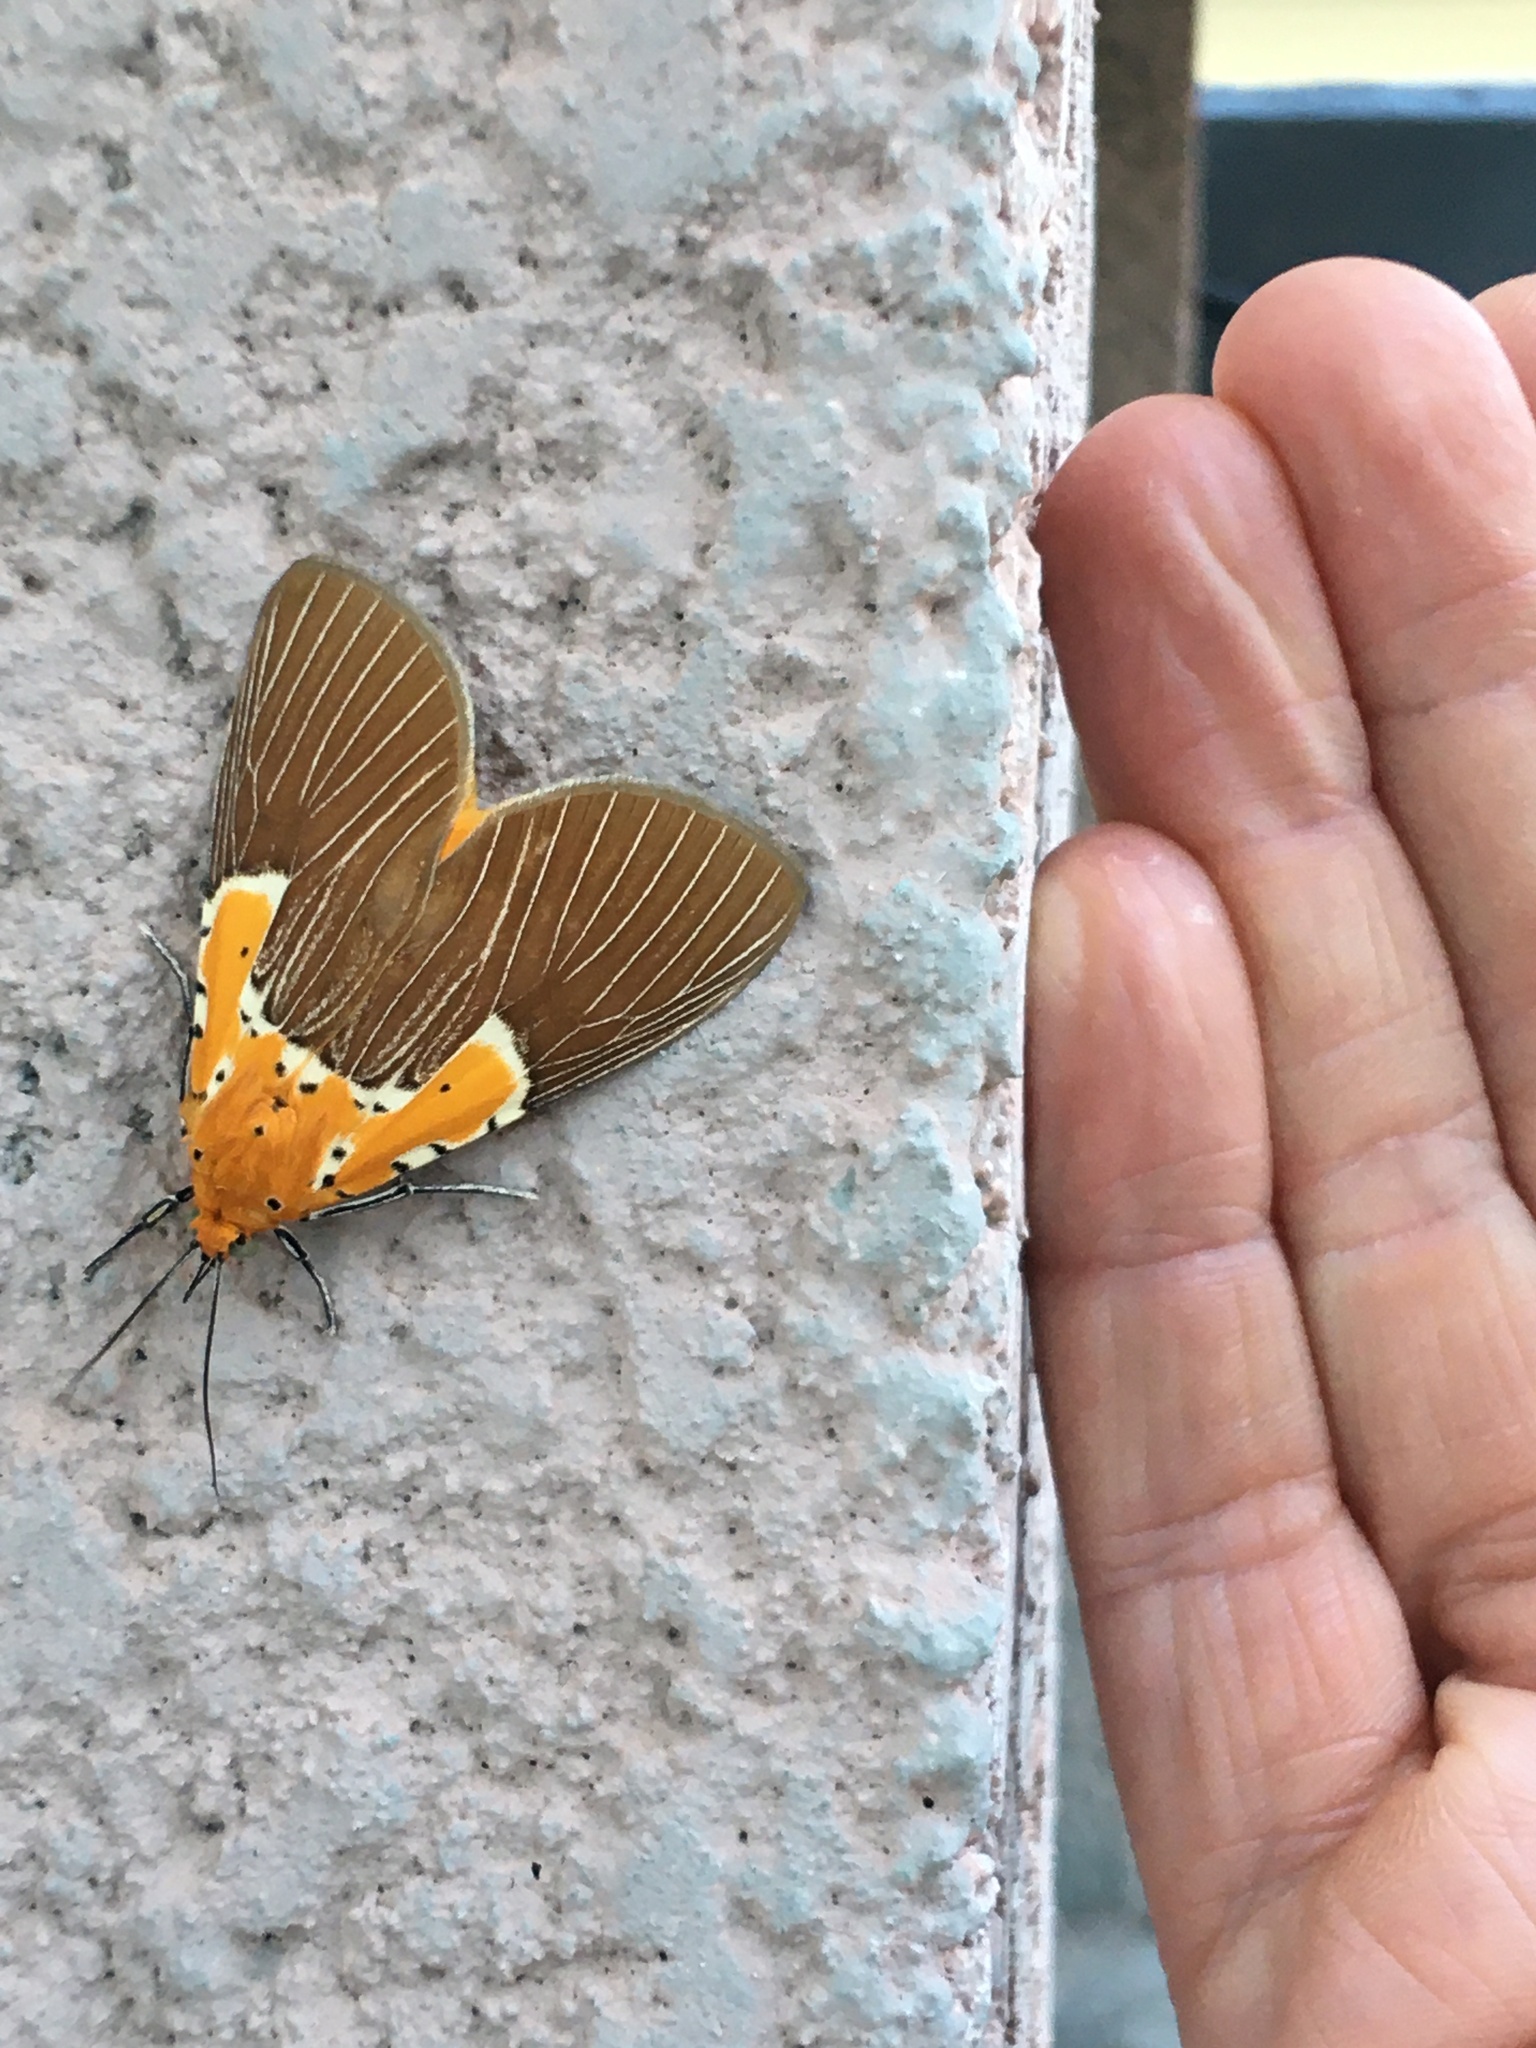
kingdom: Animalia
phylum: Arthropoda
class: Insecta
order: Lepidoptera
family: Erebidae
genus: Asota
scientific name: Asota speciosa
